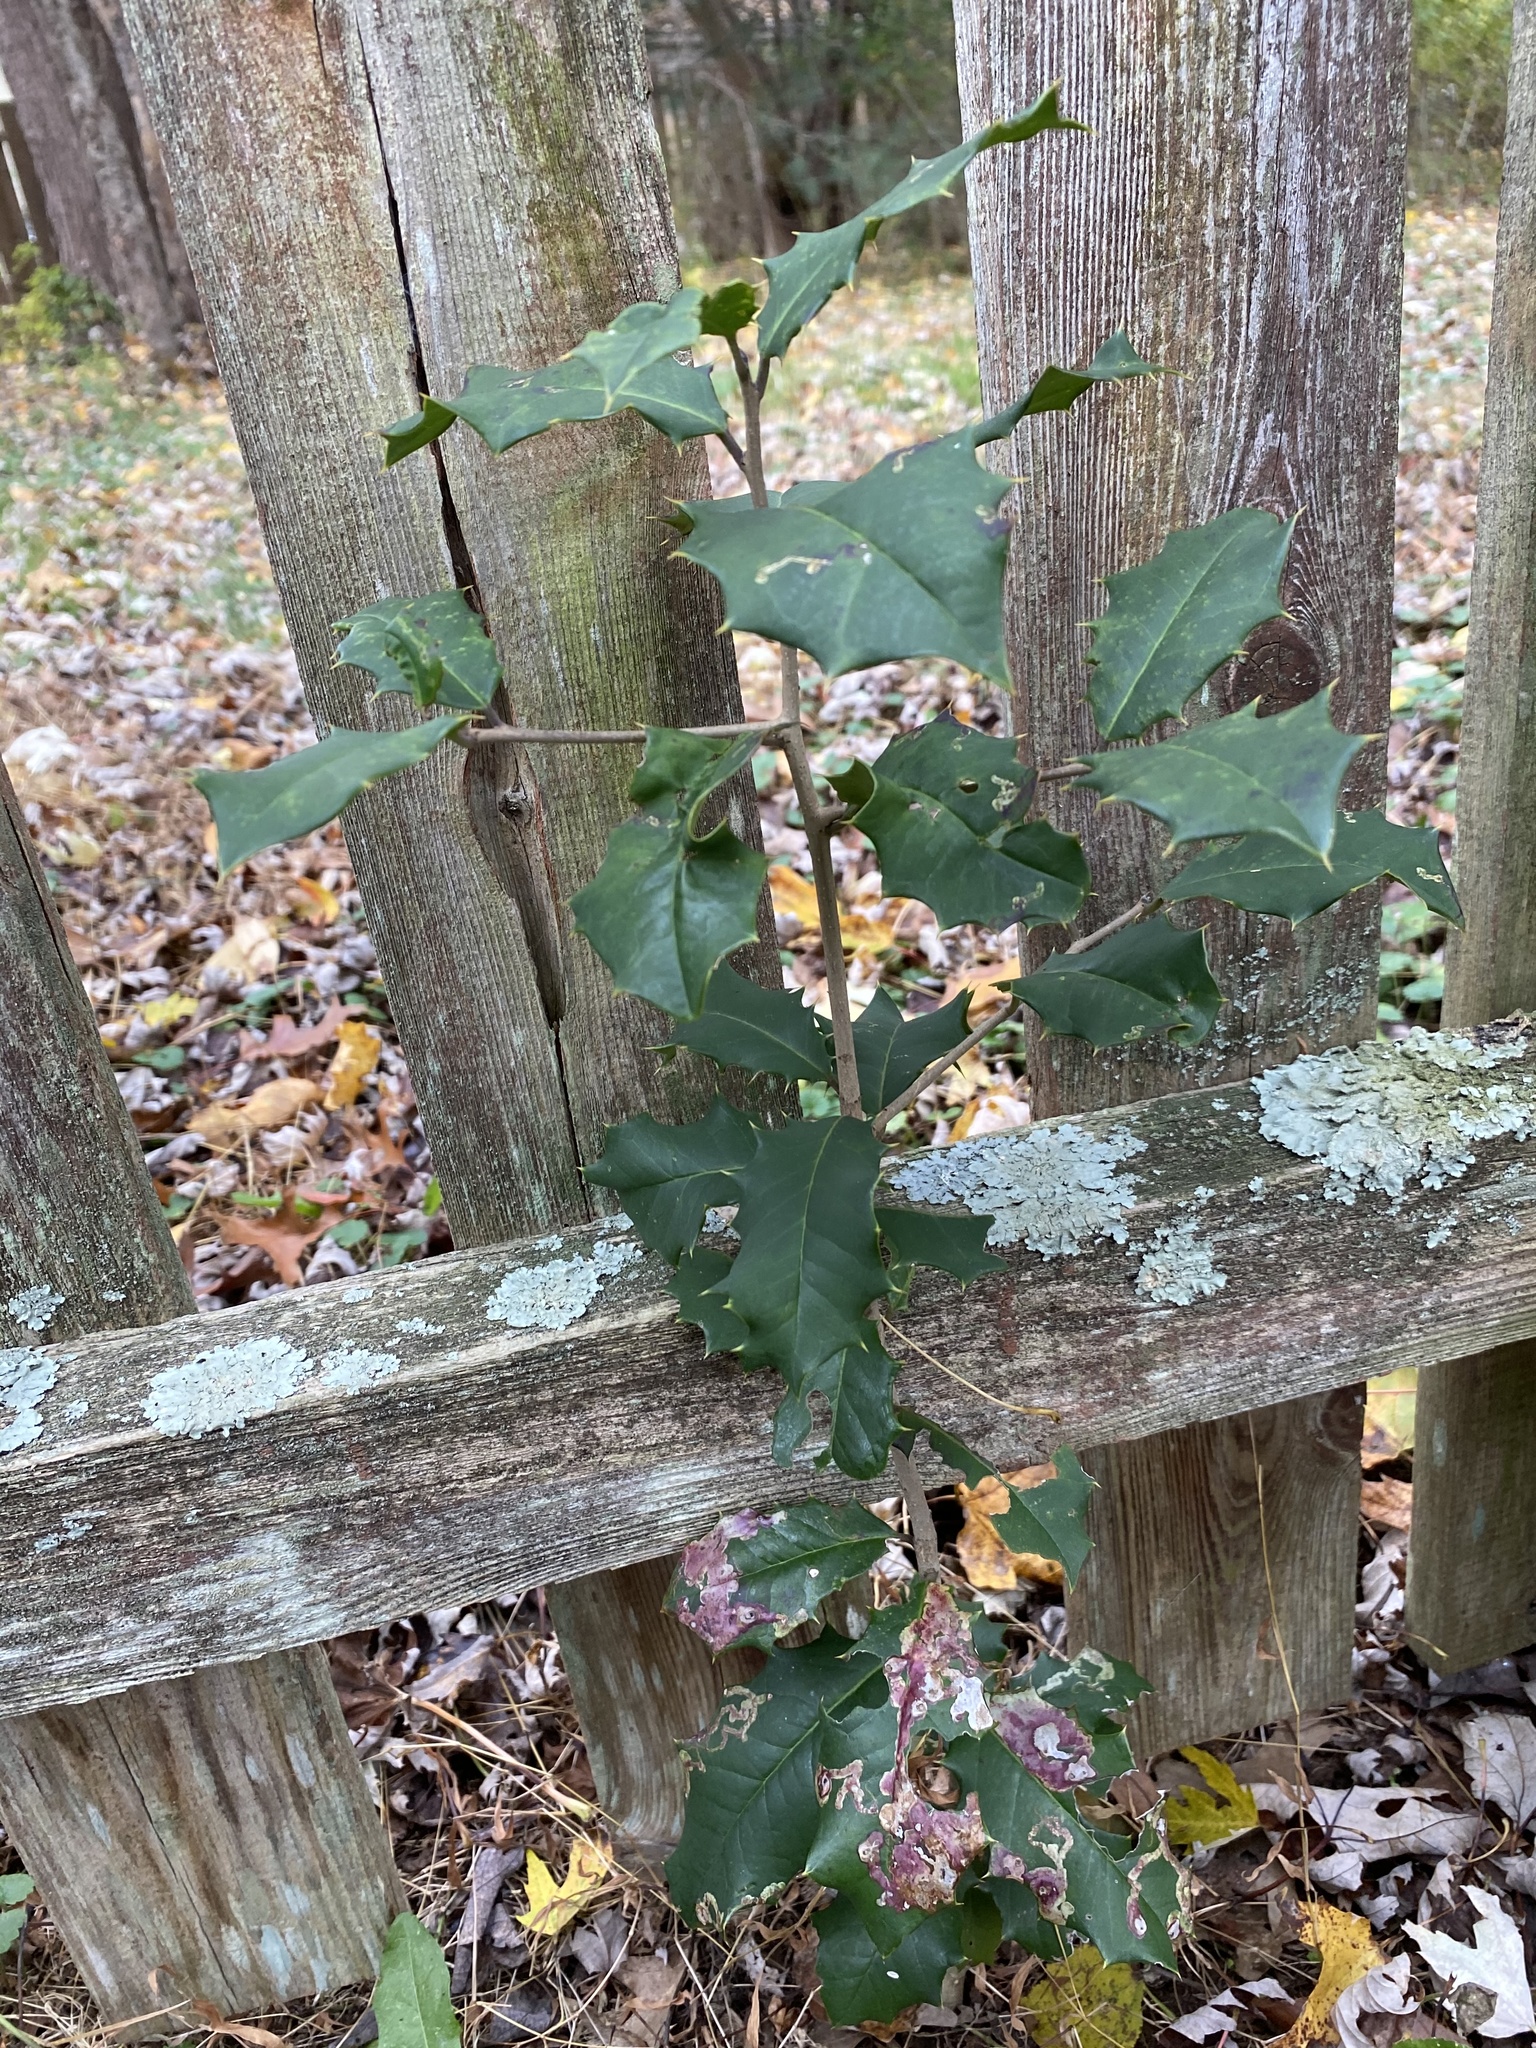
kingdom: Plantae
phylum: Tracheophyta
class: Magnoliopsida
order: Aquifoliales
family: Aquifoliaceae
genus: Ilex
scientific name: Ilex opaca
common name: American holly
